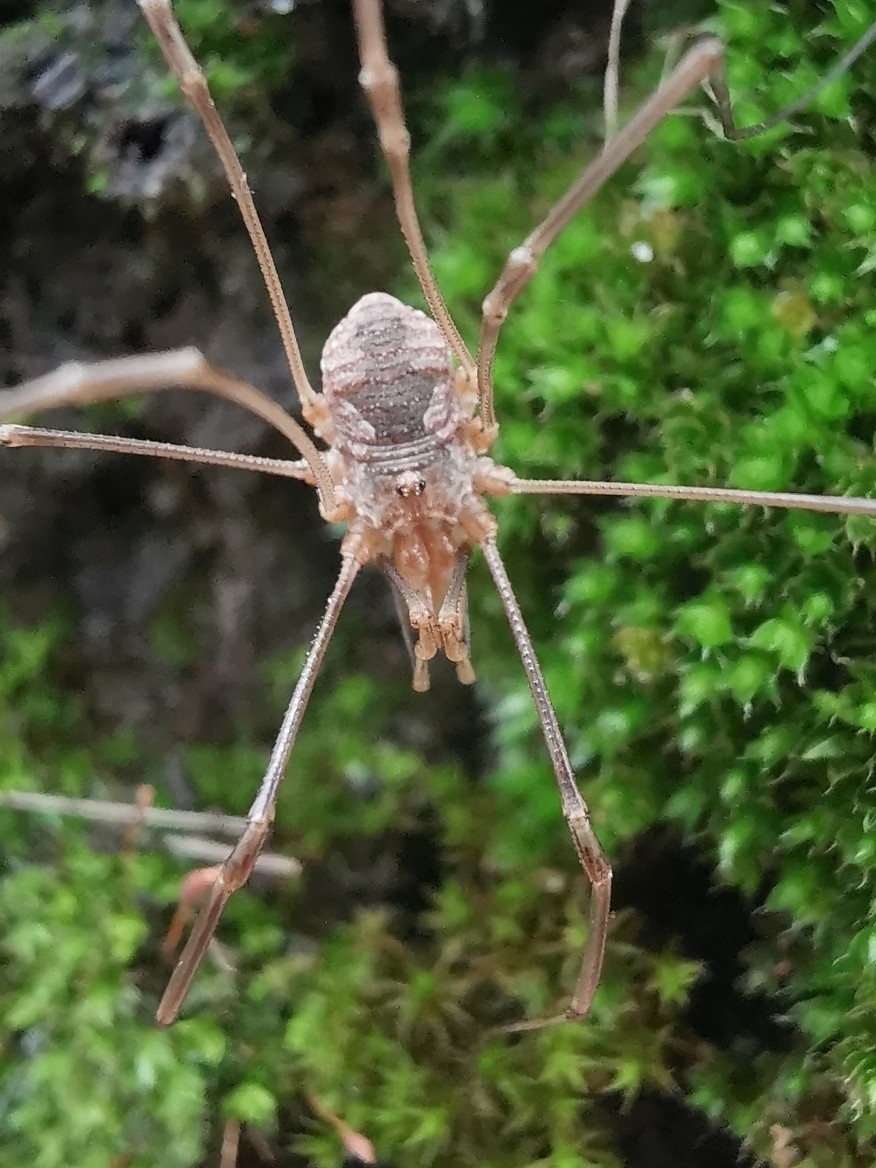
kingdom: Animalia
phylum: Arthropoda
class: Arachnida
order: Opiliones
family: Phalangiidae
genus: Phalangium
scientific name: Phalangium opilio
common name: Daddy longleg
